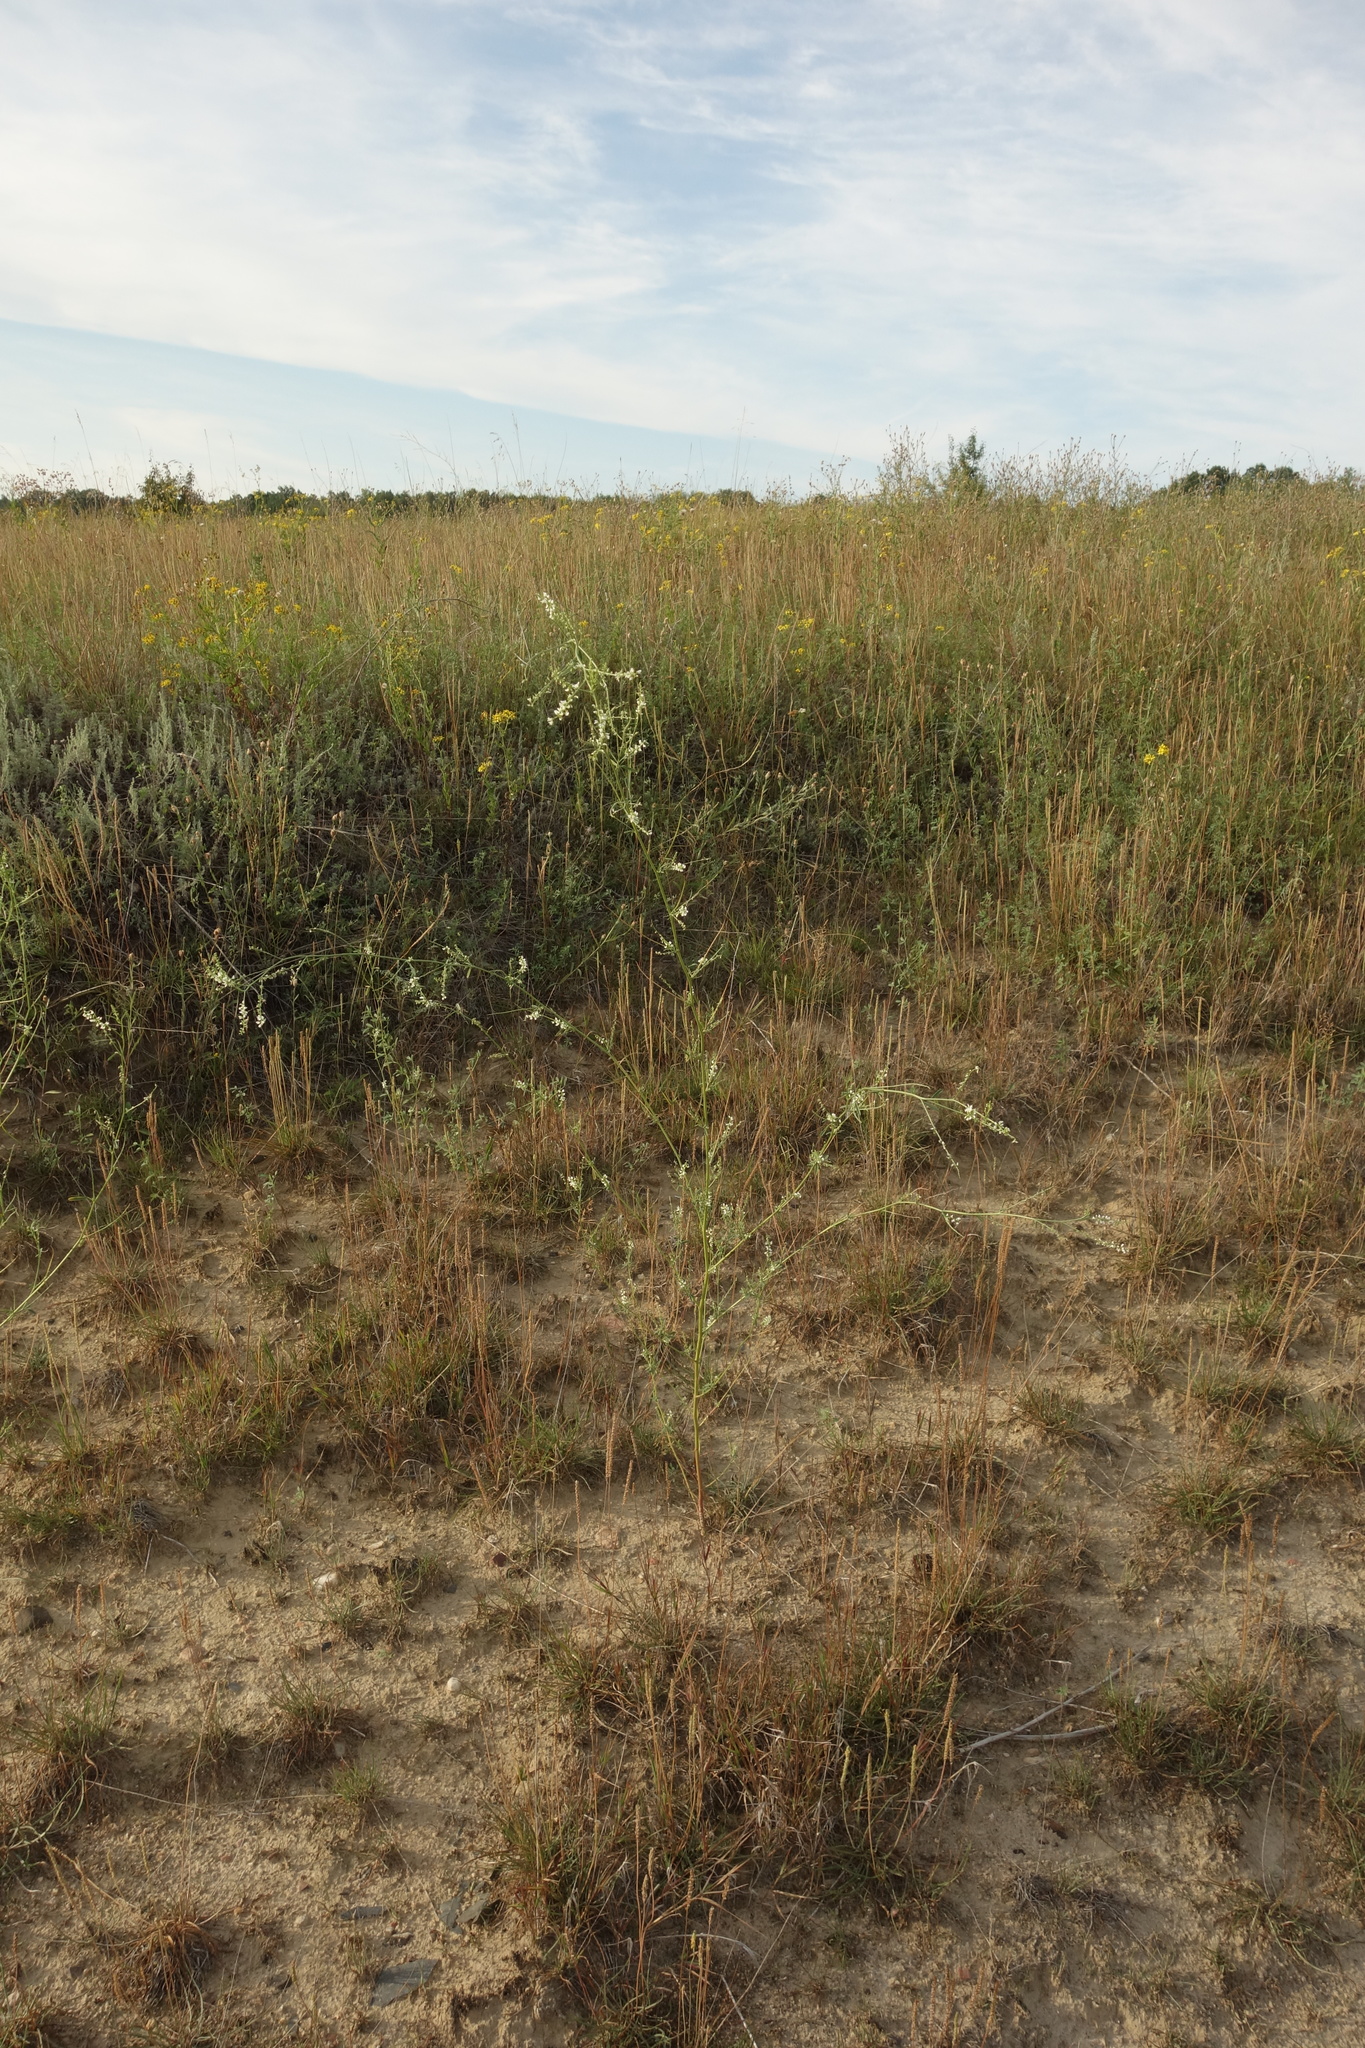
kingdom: Plantae
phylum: Tracheophyta
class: Magnoliopsida
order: Fabales
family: Fabaceae
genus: Melilotus
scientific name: Melilotus albus
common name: White melilot
